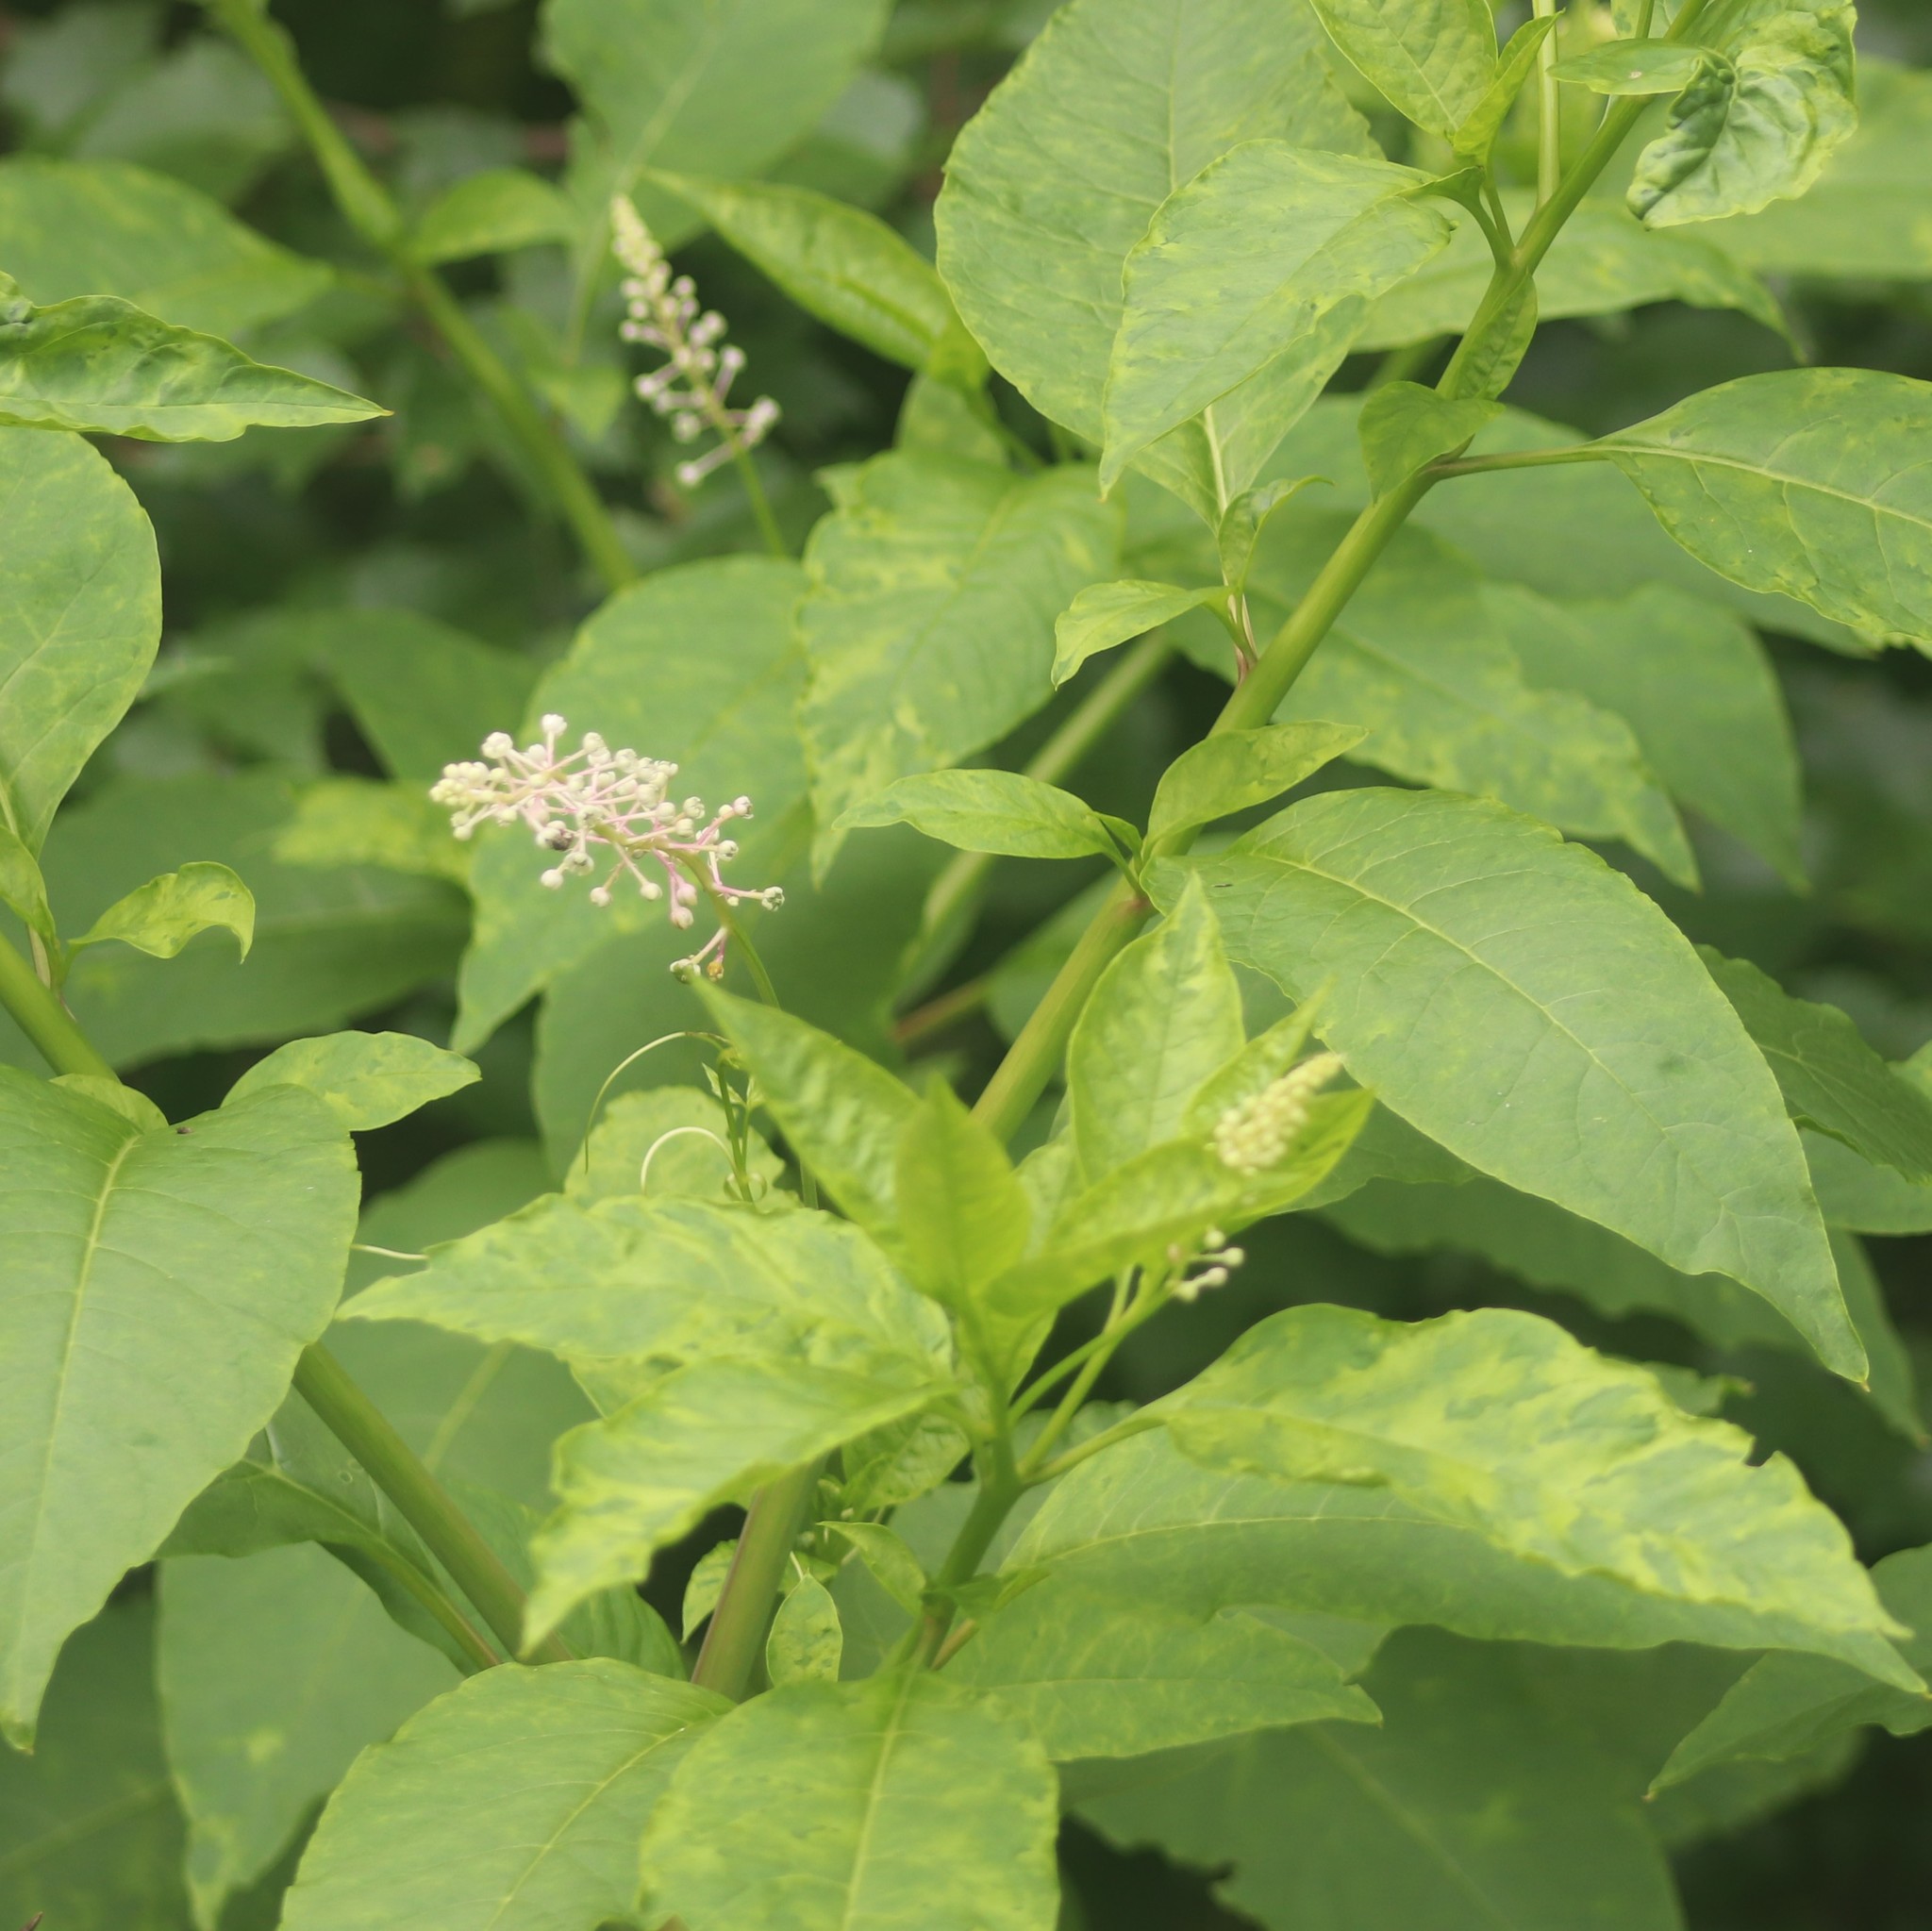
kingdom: Viruses
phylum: Pisuviricota
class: Stelpaviricetes
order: Patatavirales
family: Potyviridae
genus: Potyvirus
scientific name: Potyvirus Pokeweed mosaic virus
